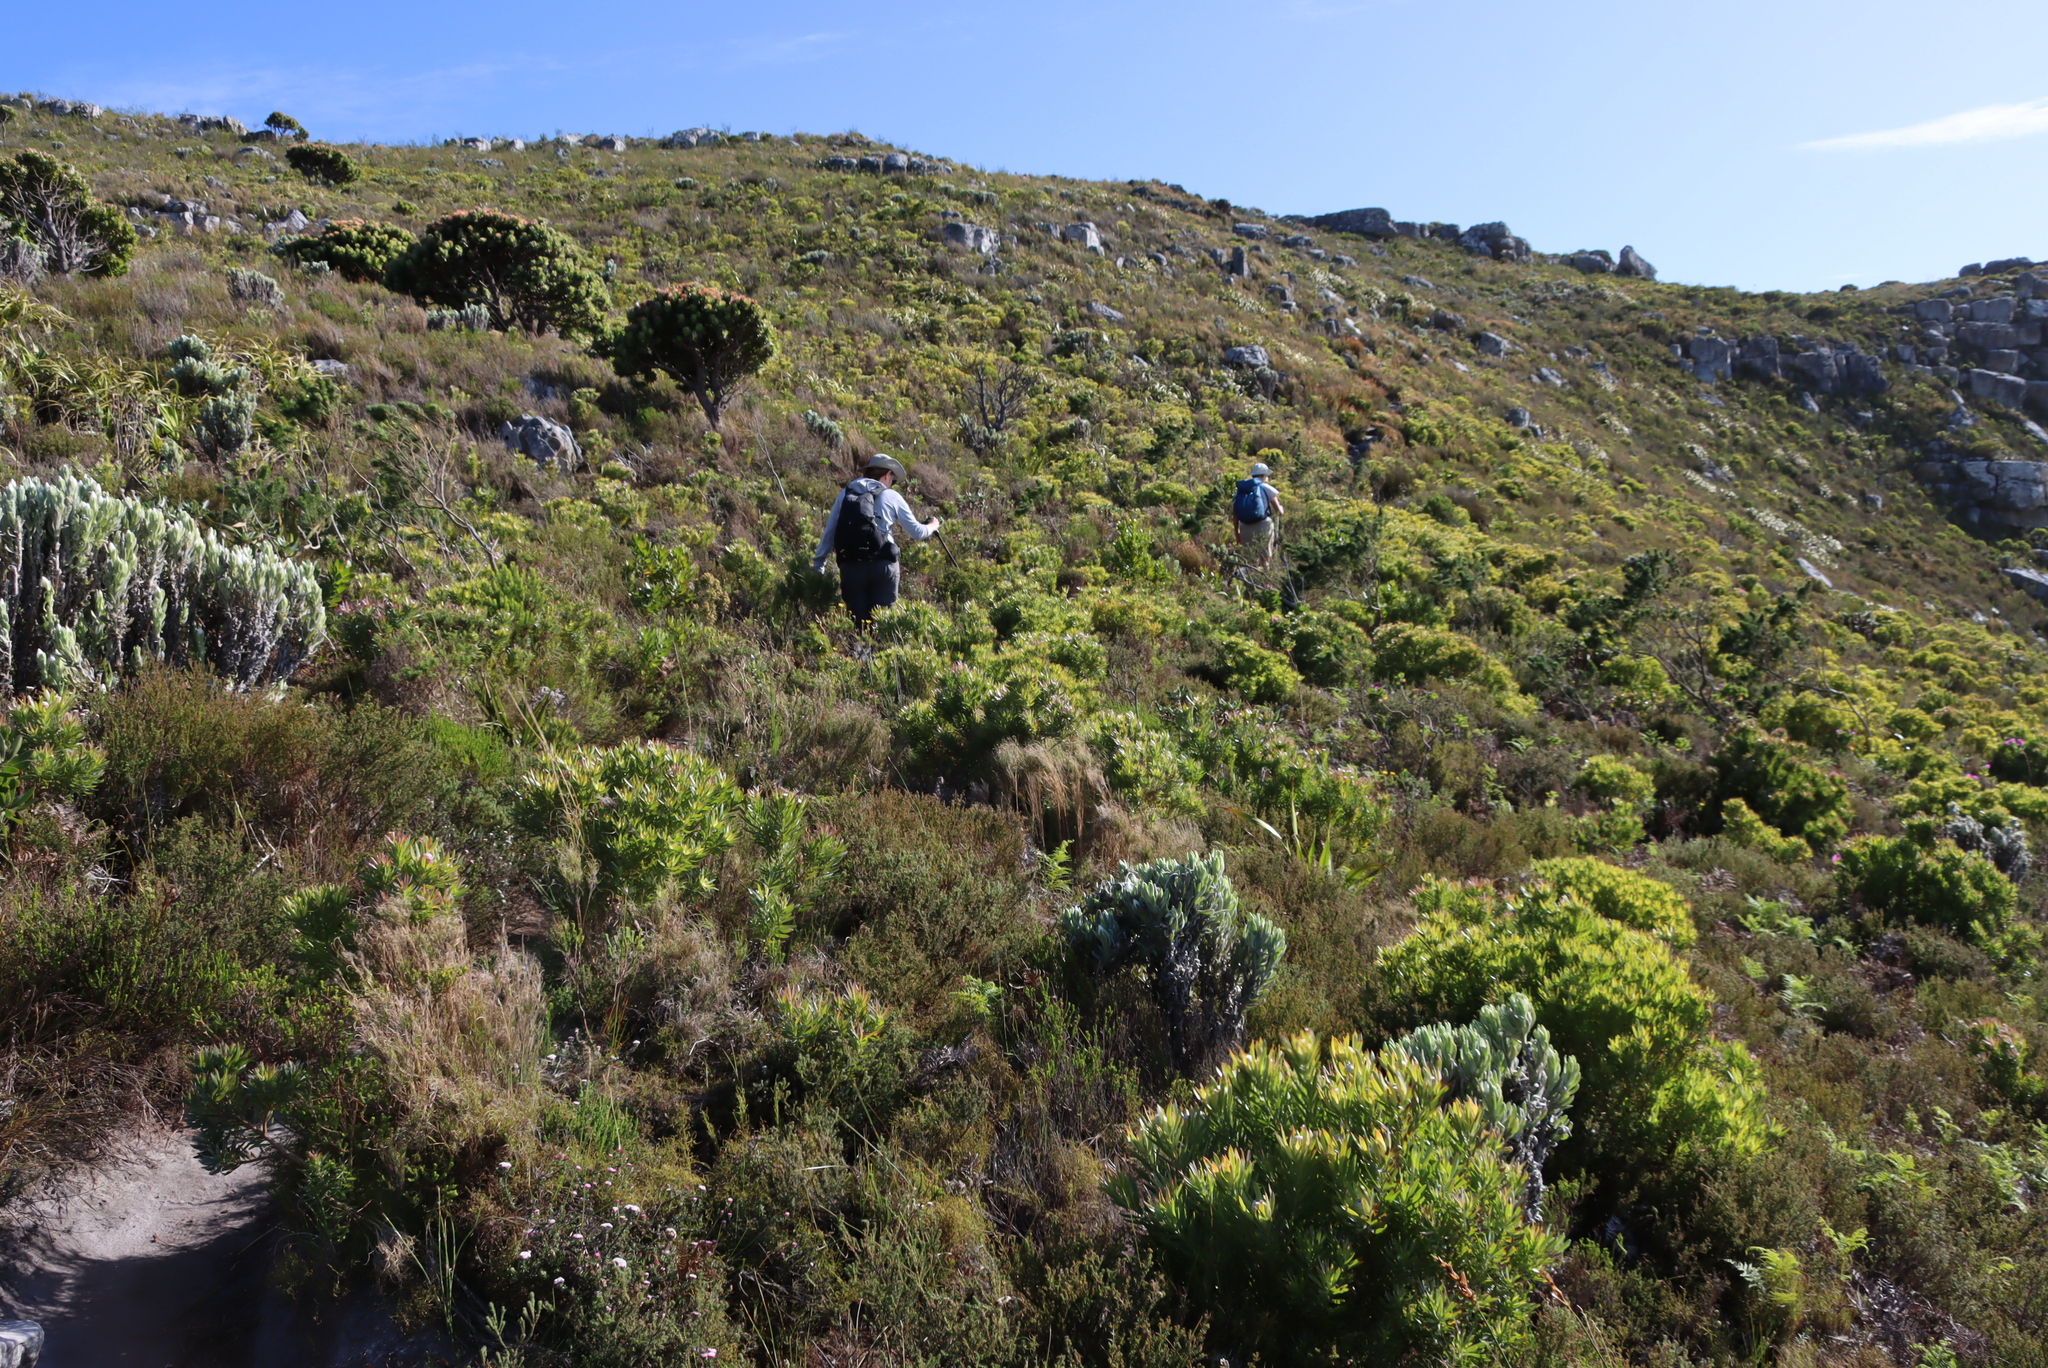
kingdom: Plantae
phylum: Tracheophyta
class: Magnoliopsida
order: Asterales
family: Asteraceae
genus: Syncarpha
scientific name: Syncarpha vestita
